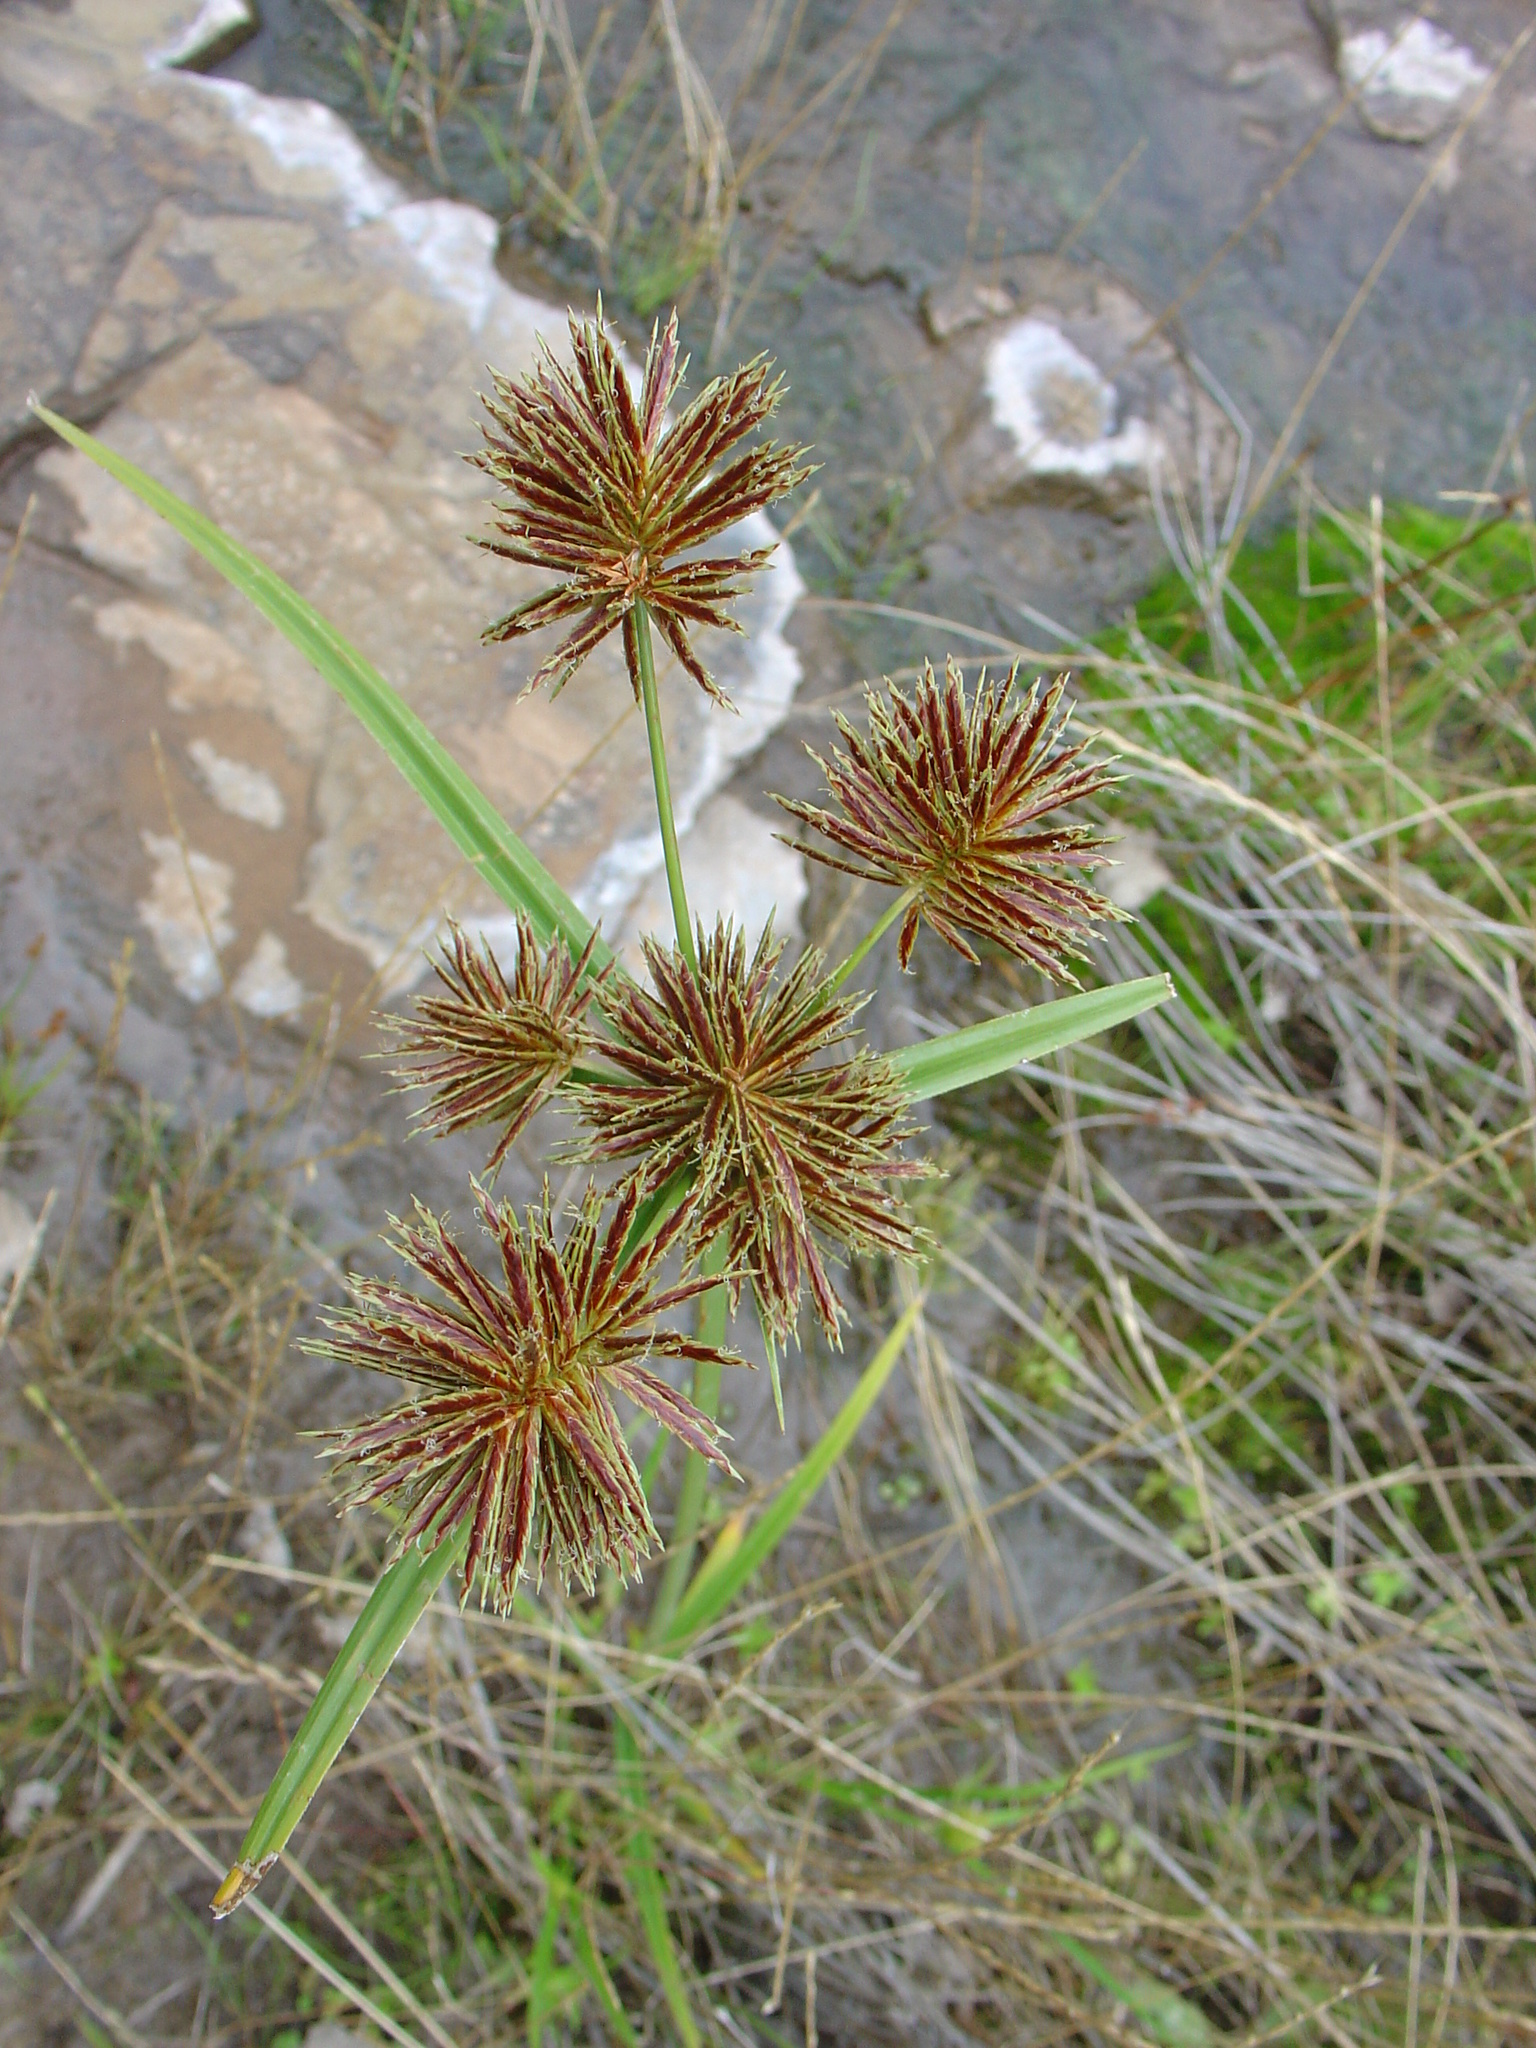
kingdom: Plantae
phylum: Tracheophyta
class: Liliopsida
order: Poales
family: Cyperaceae
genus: Cyperus
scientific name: Cyperus congestus
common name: Dense flat sedge
